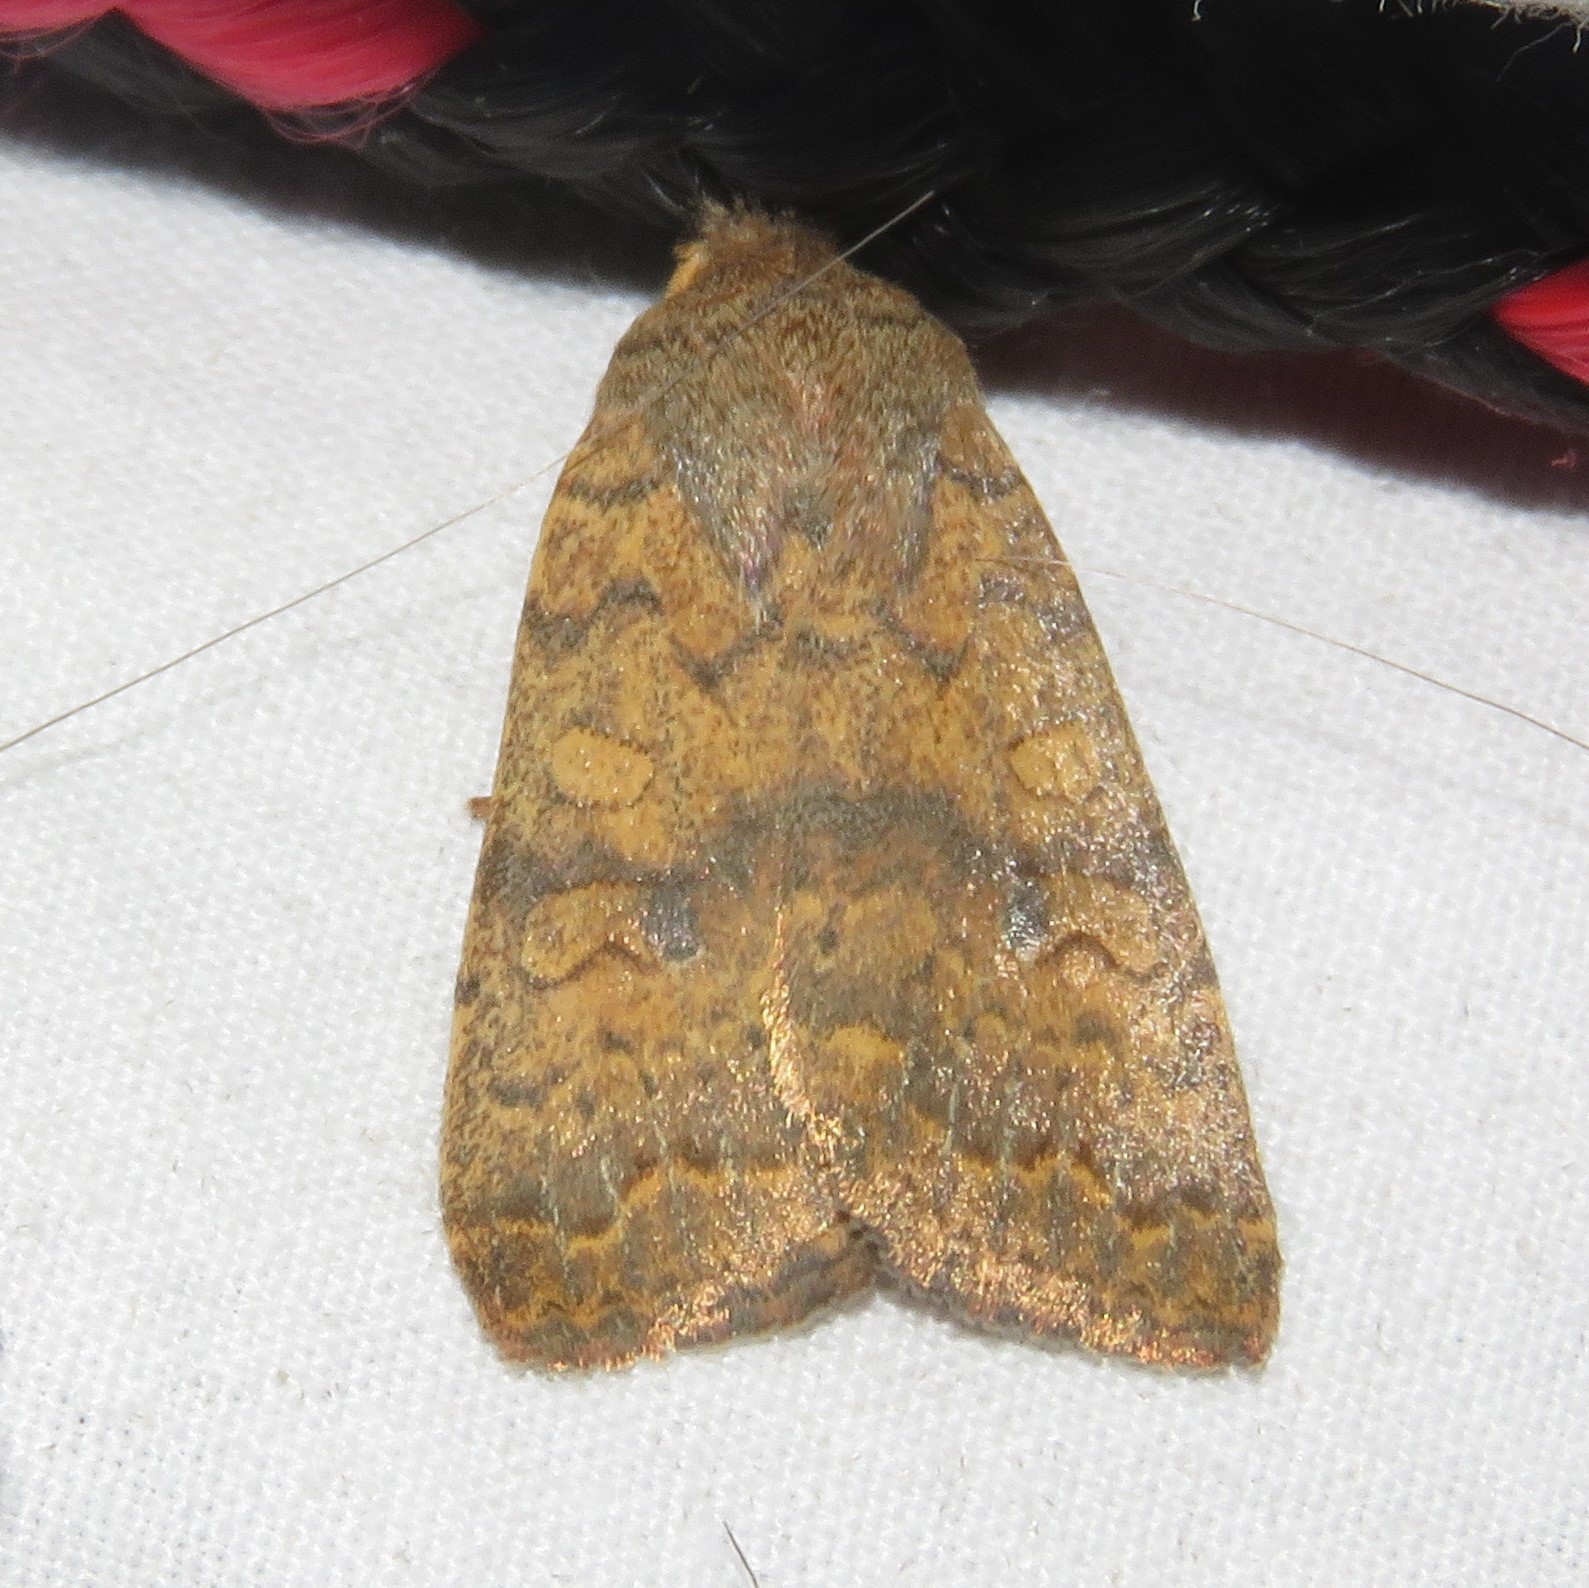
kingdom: Animalia
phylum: Arthropoda
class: Insecta
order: Lepidoptera
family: Noctuidae
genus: Agrochola
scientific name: Agrochola bicolorago
